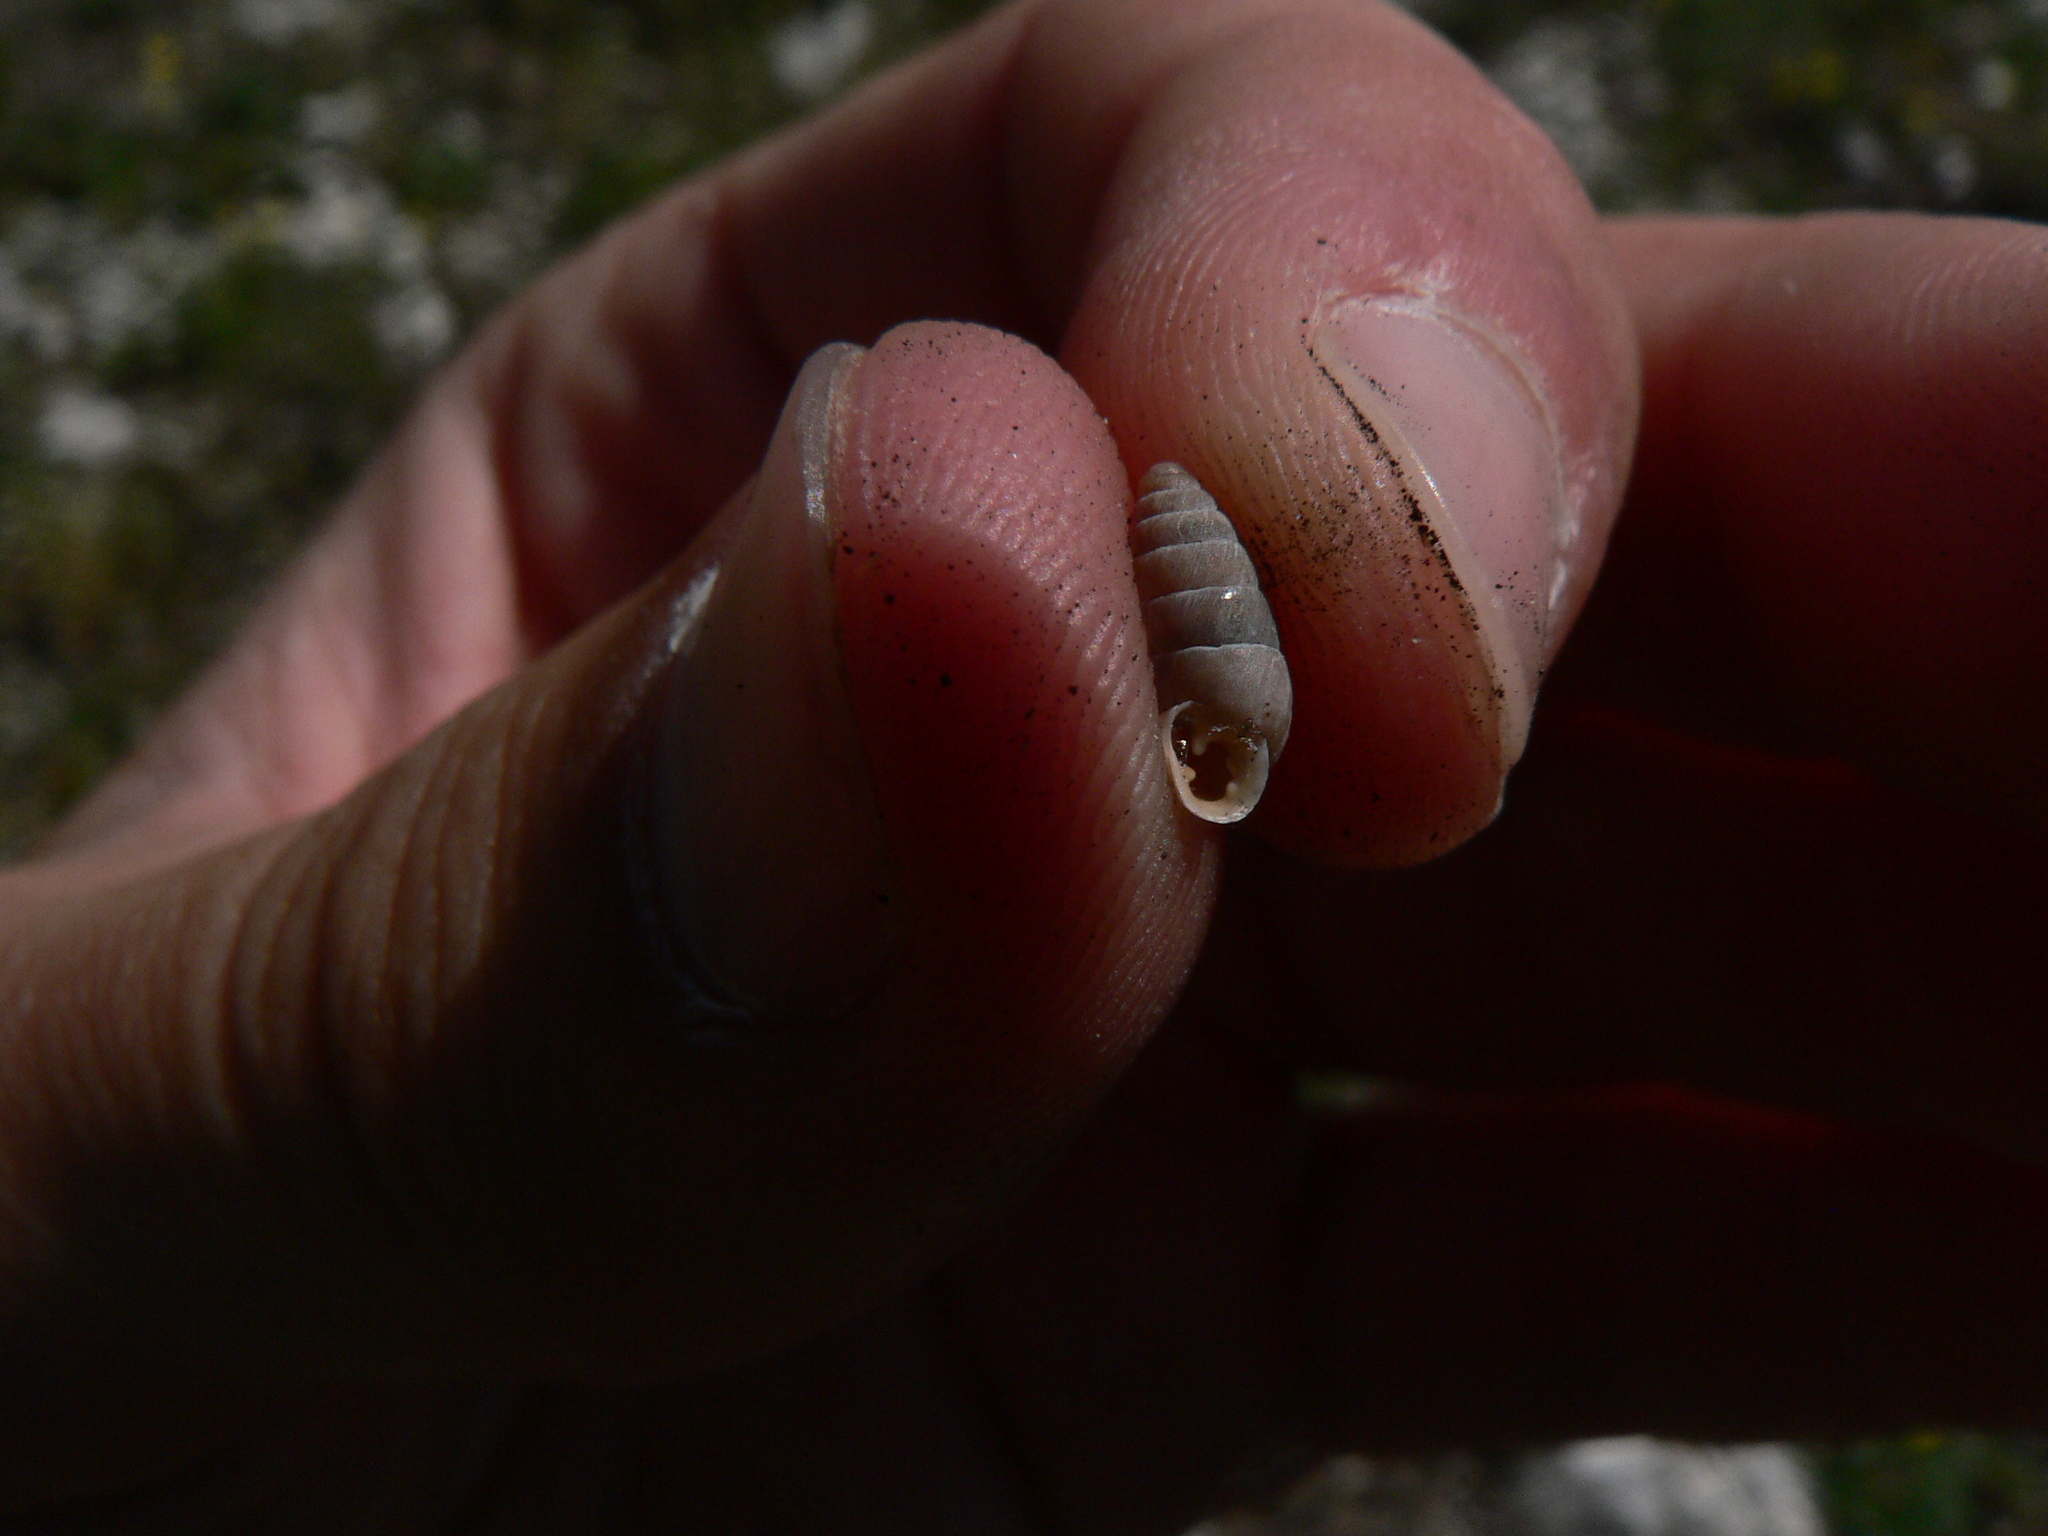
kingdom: Animalia
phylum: Mollusca
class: Gastropoda
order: Stylommatophora
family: Enidae
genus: Jaminia
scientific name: Jaminia quadridens
